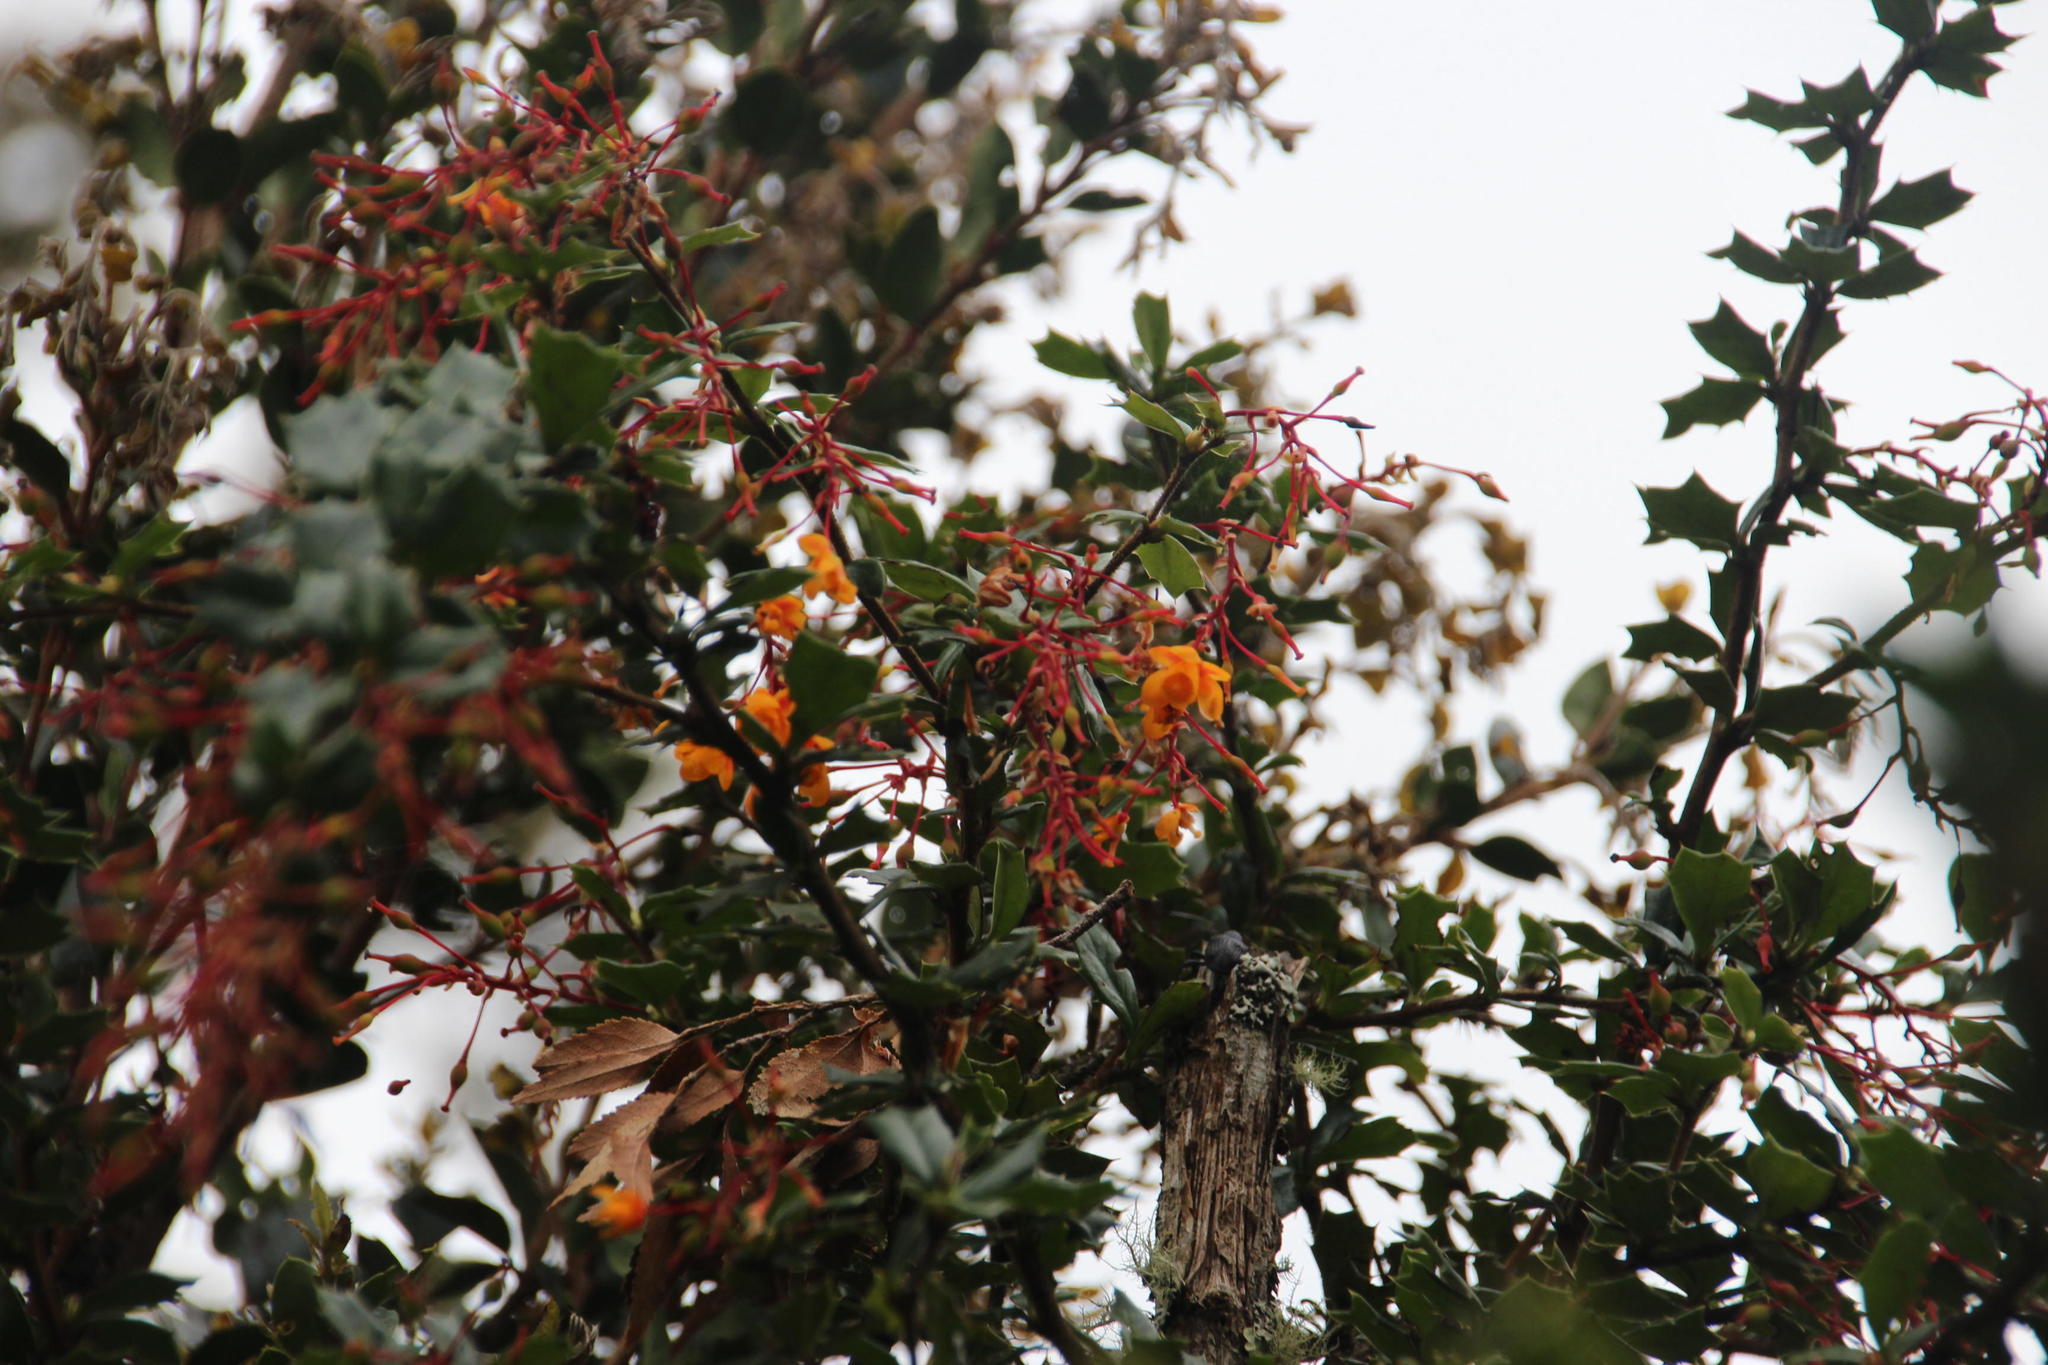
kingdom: Plantae
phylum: Tracheophyta
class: Magnoliopsida
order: Ranunculales
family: Berberidaceae
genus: Berberis
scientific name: Berberis darwinii
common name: Darwin's barberry
